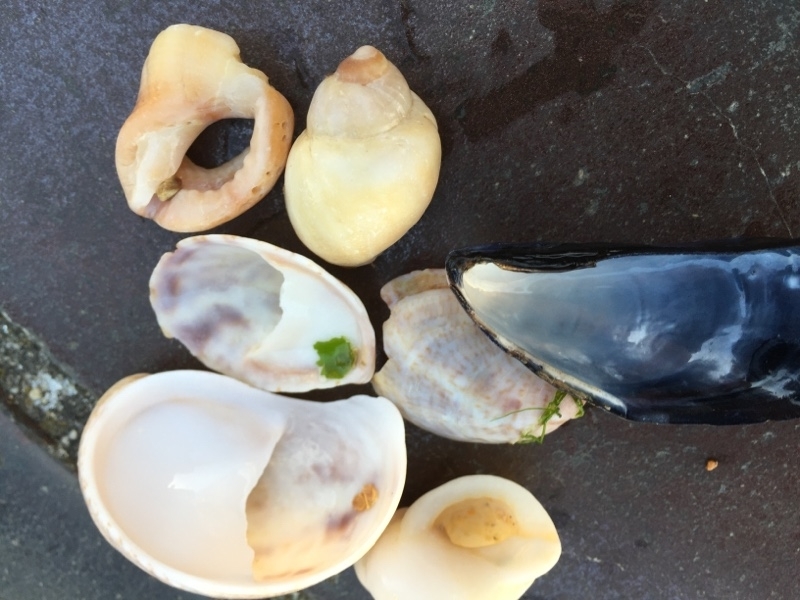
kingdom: Animalia
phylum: Mollusca
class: Gastropoda
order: Littorinimorpha
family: Calyptraeidae
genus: Crepidula
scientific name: Crepidula fornicata
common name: Slipper limpet
